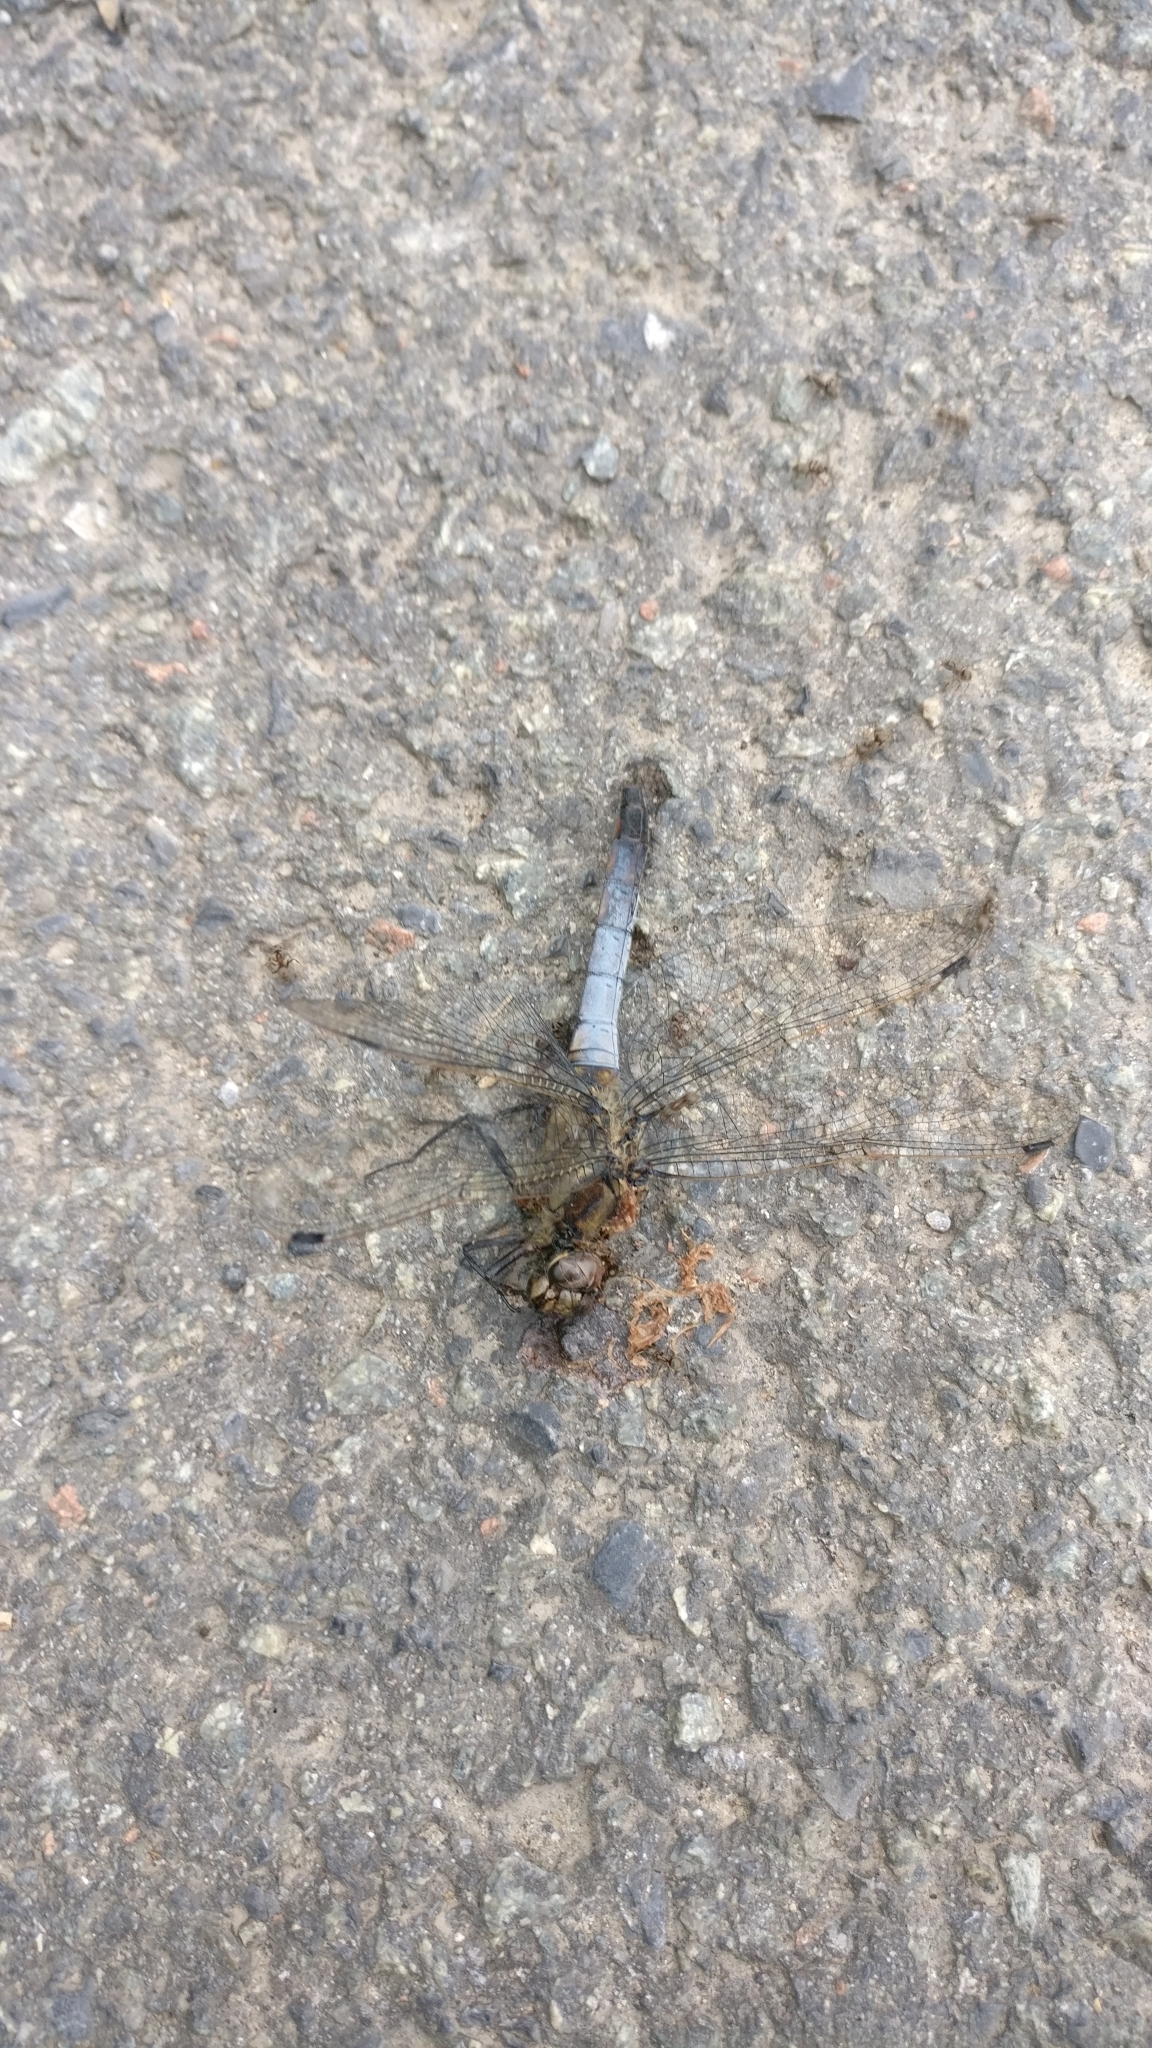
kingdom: Animalia
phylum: Arthropoda
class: Insecta
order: Odonata
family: Libellulidae
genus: Orthetrum
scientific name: Orthetrum cancellatum
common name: Black-tailed skimmer
